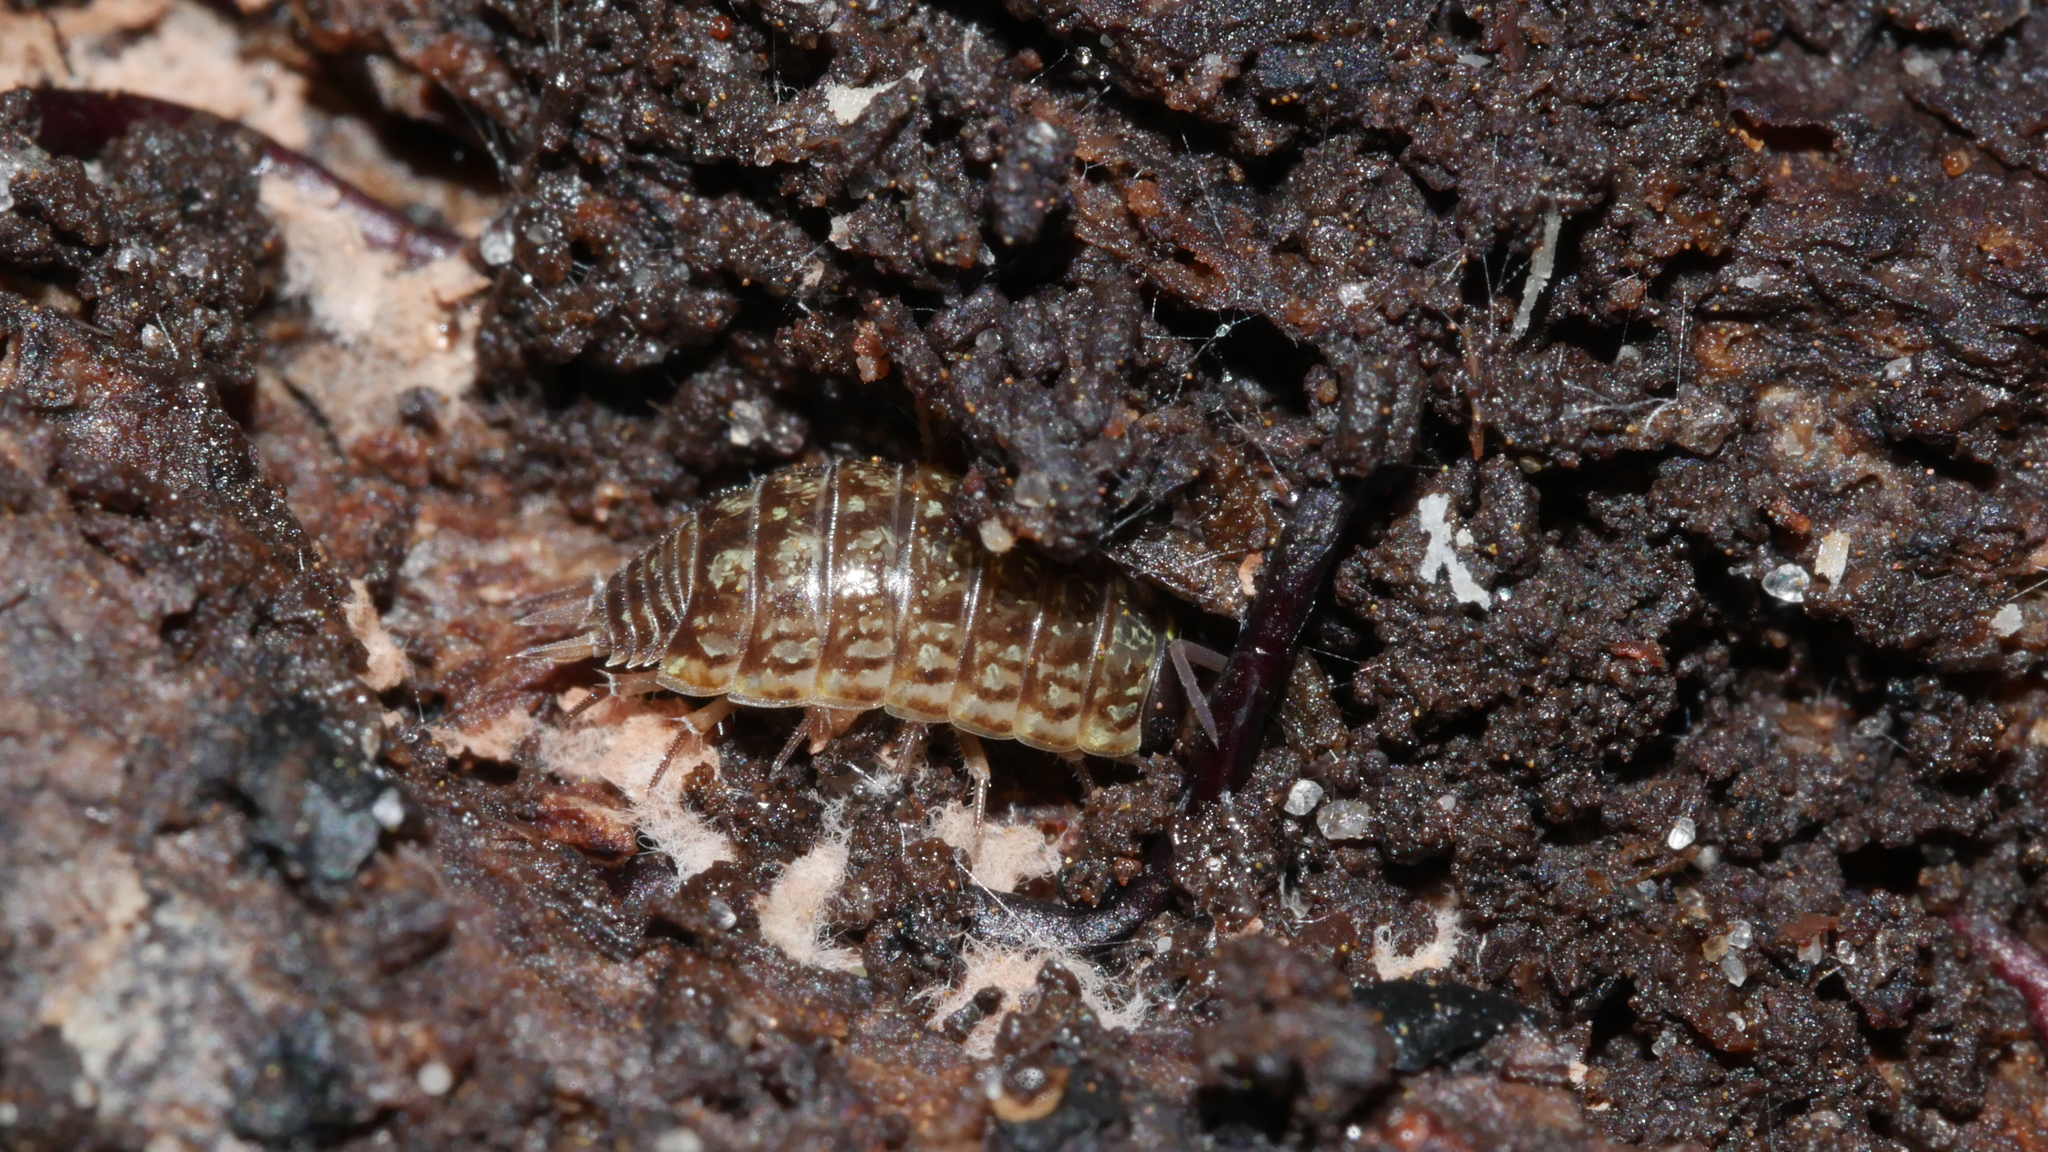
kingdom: Animalia
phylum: Arthropoda
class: Malacostraca
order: Isopoda
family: Philosciidae
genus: Philoscia
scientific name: Philoscia muscorum
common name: Common striped woodlouse
